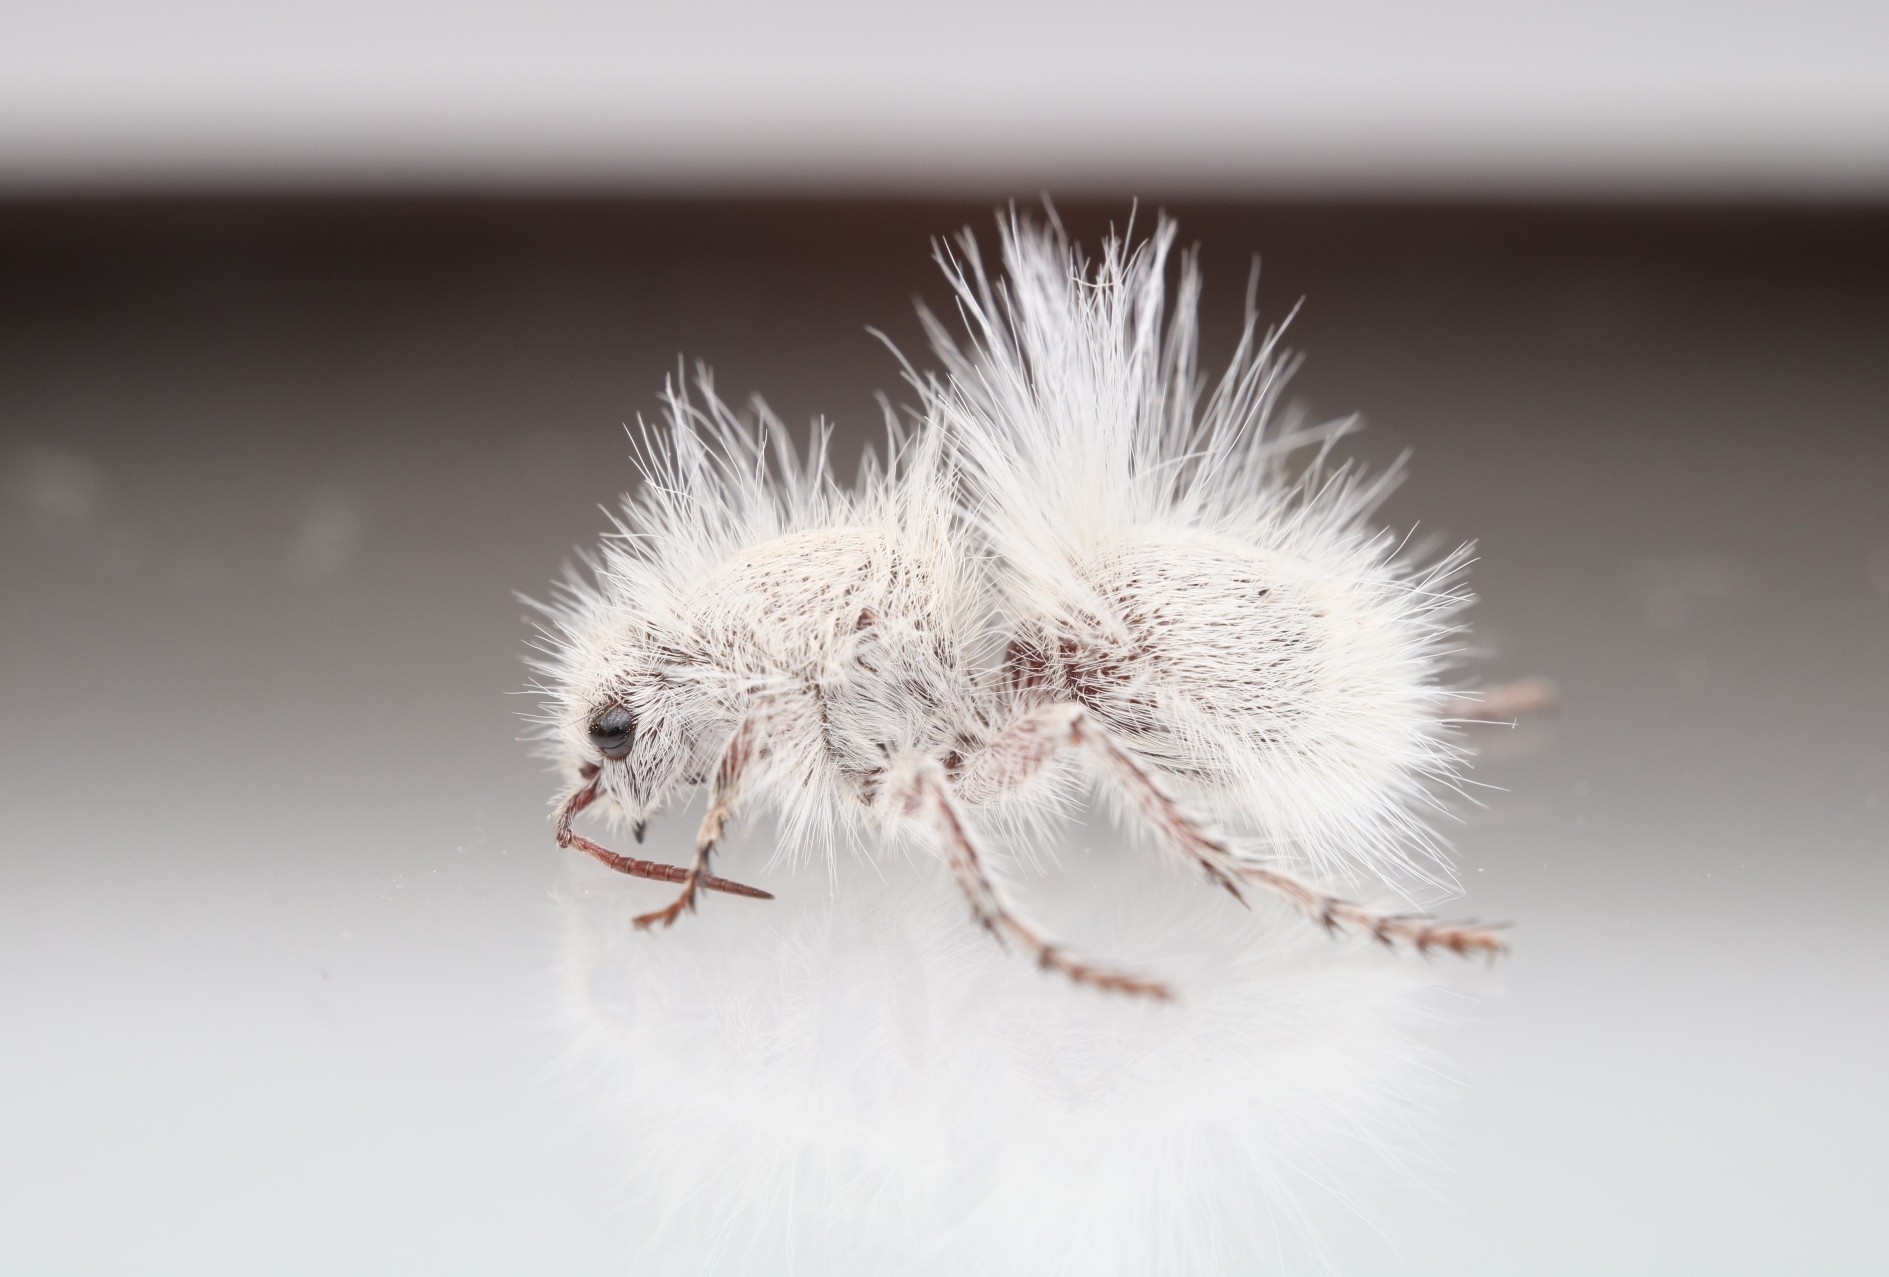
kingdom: Animalia
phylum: Arthropoda
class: Insecta
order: Hymenoptera
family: Mutillidae
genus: Dasymutilla
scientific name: Dasymutilla gloriosa
